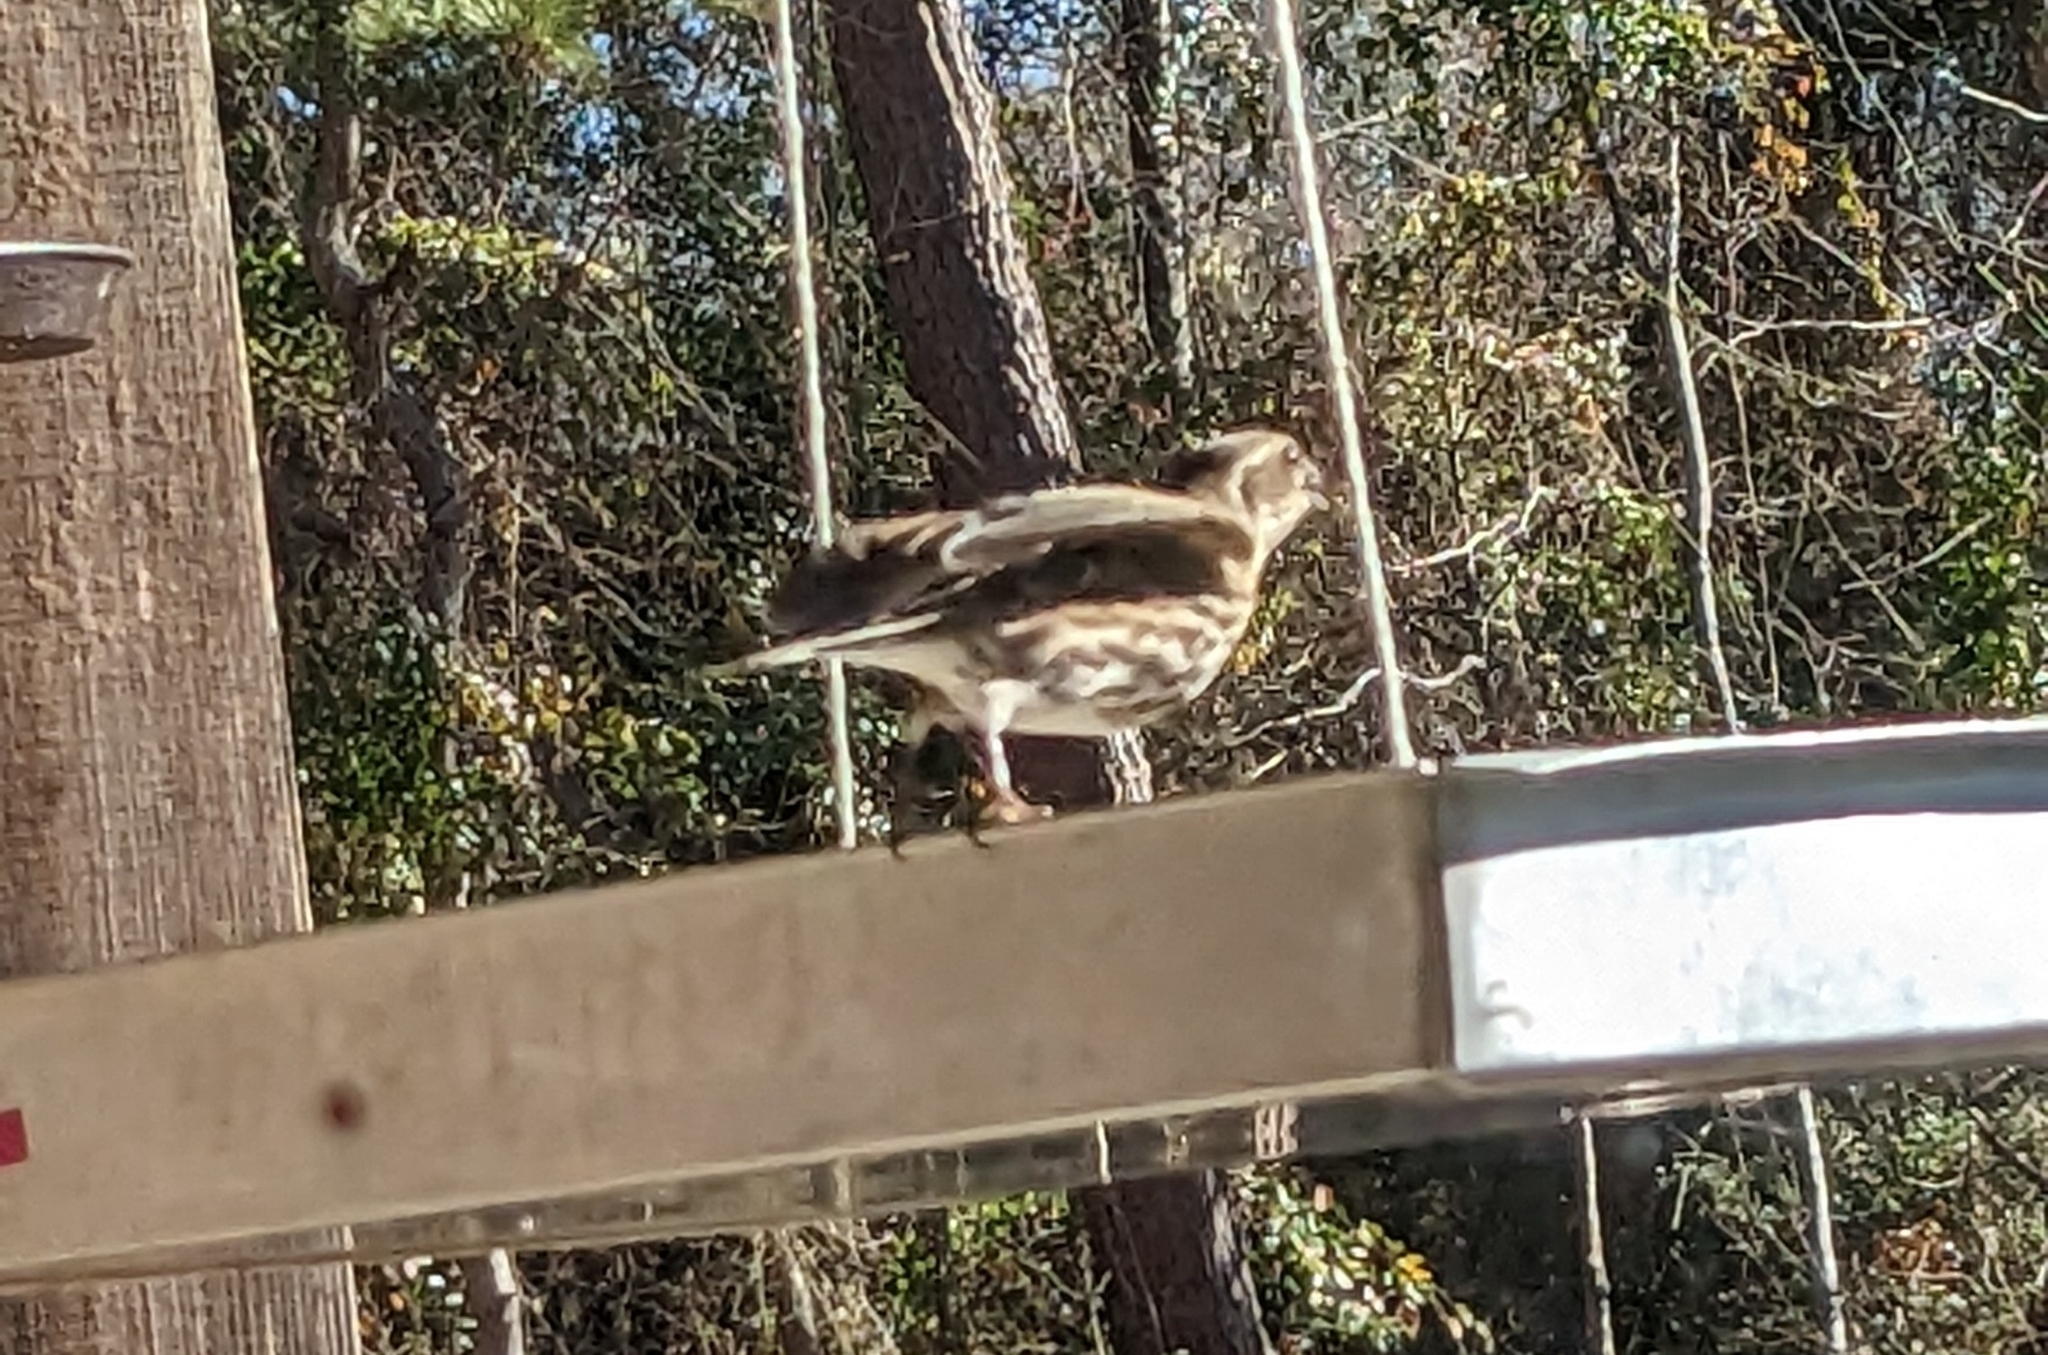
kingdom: Animalia
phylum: Chordata
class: Aves
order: Passeriformes
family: Fringillidae
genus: Haemorhous
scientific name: Haemorhous purpureus
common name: Purple finch
